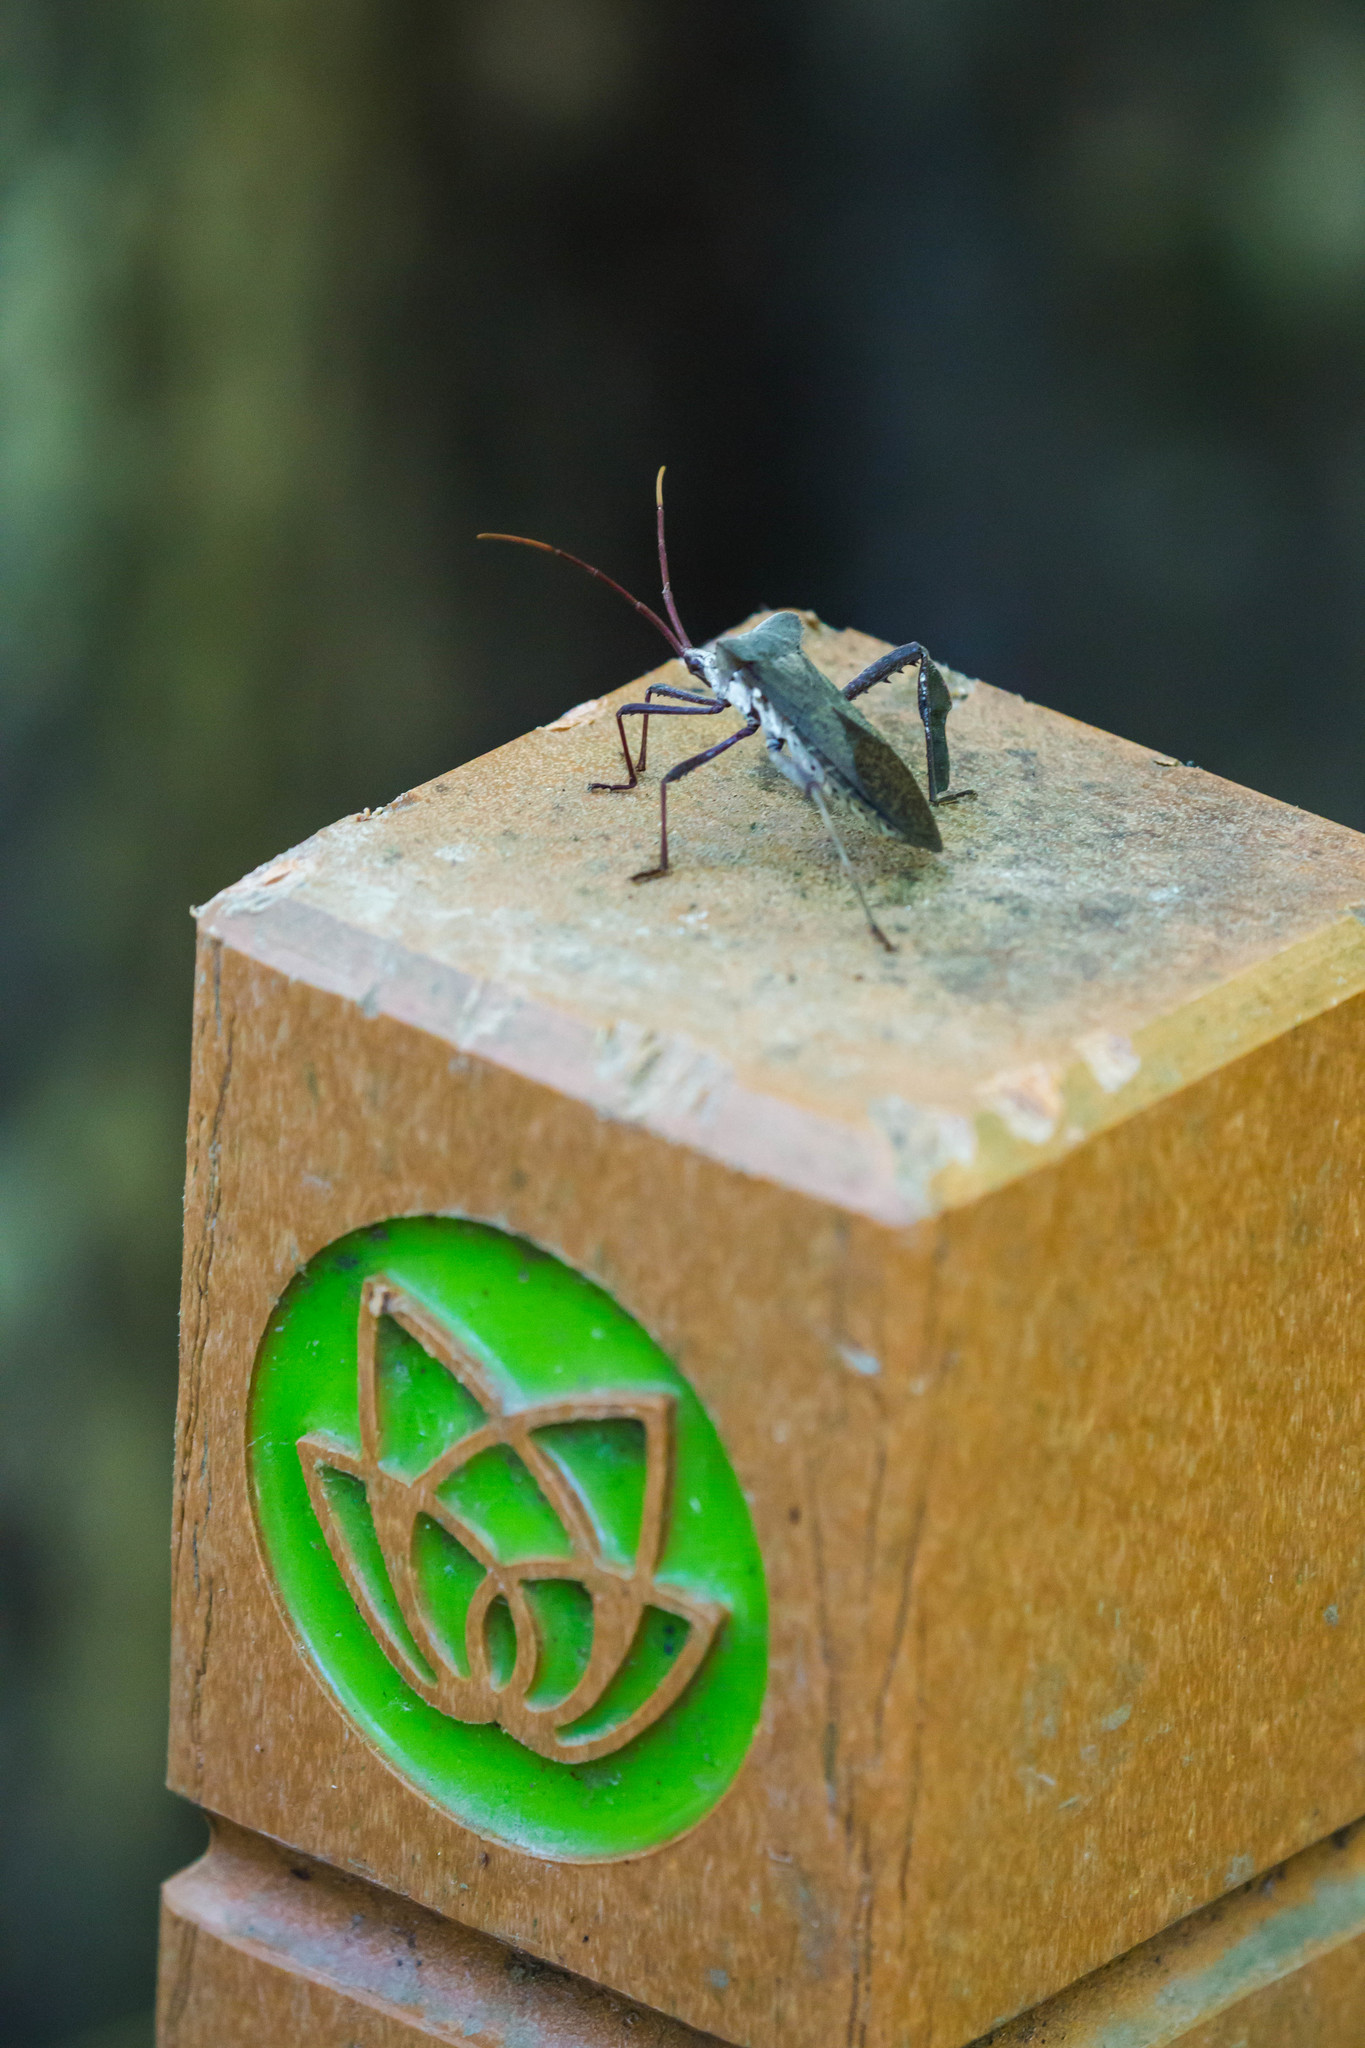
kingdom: Animalia
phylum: Arthropoda
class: Insecta
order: Hemiptera
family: Coreidae
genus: Acanthocephala
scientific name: Acanthocephala declivis
